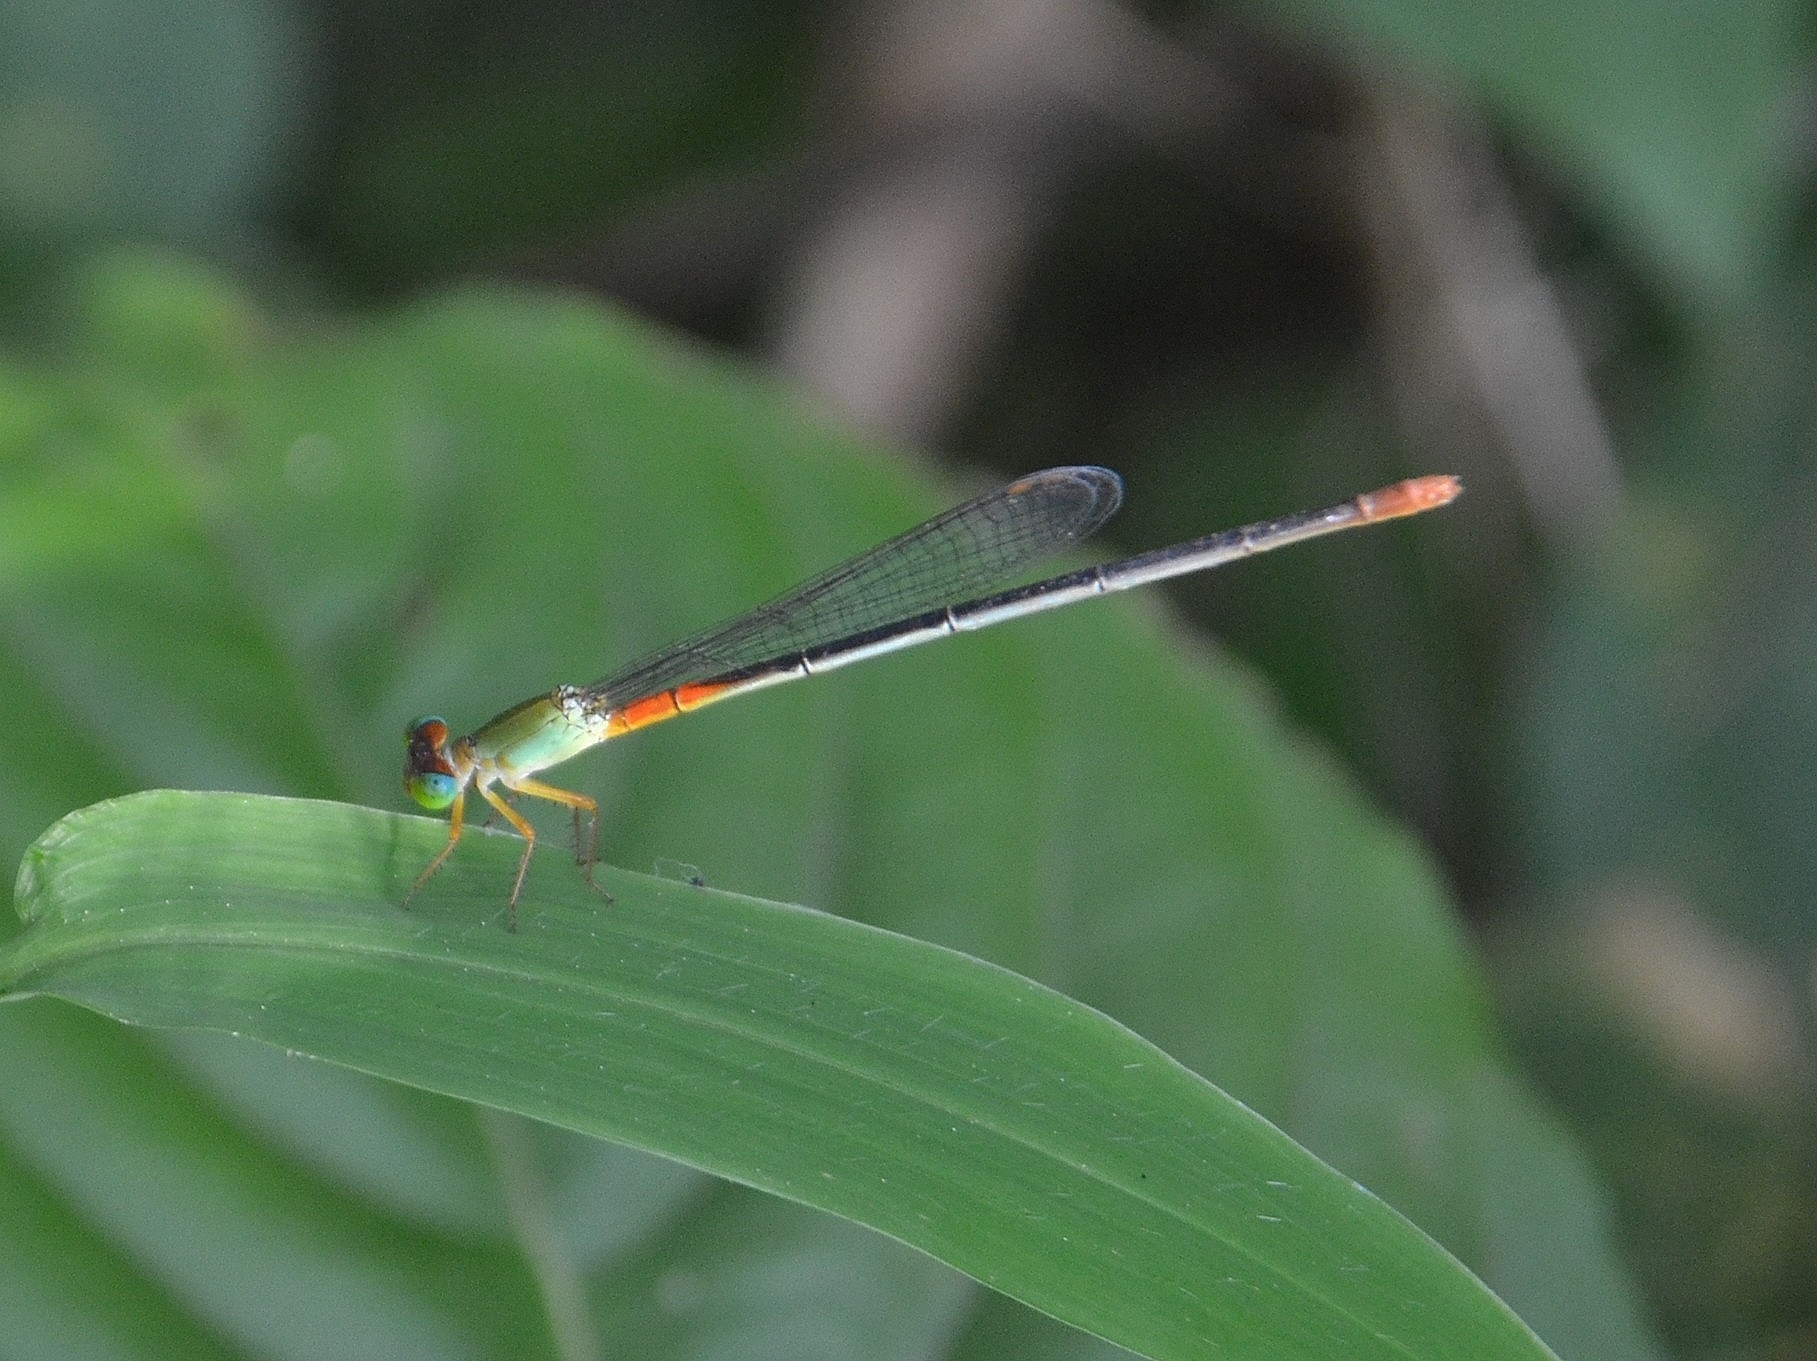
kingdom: Animalia
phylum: Arthropoda
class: Insecta
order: Odonata
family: Coenagrionidae
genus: Ceriagrion
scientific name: Ceriagrion cerinorubellum
